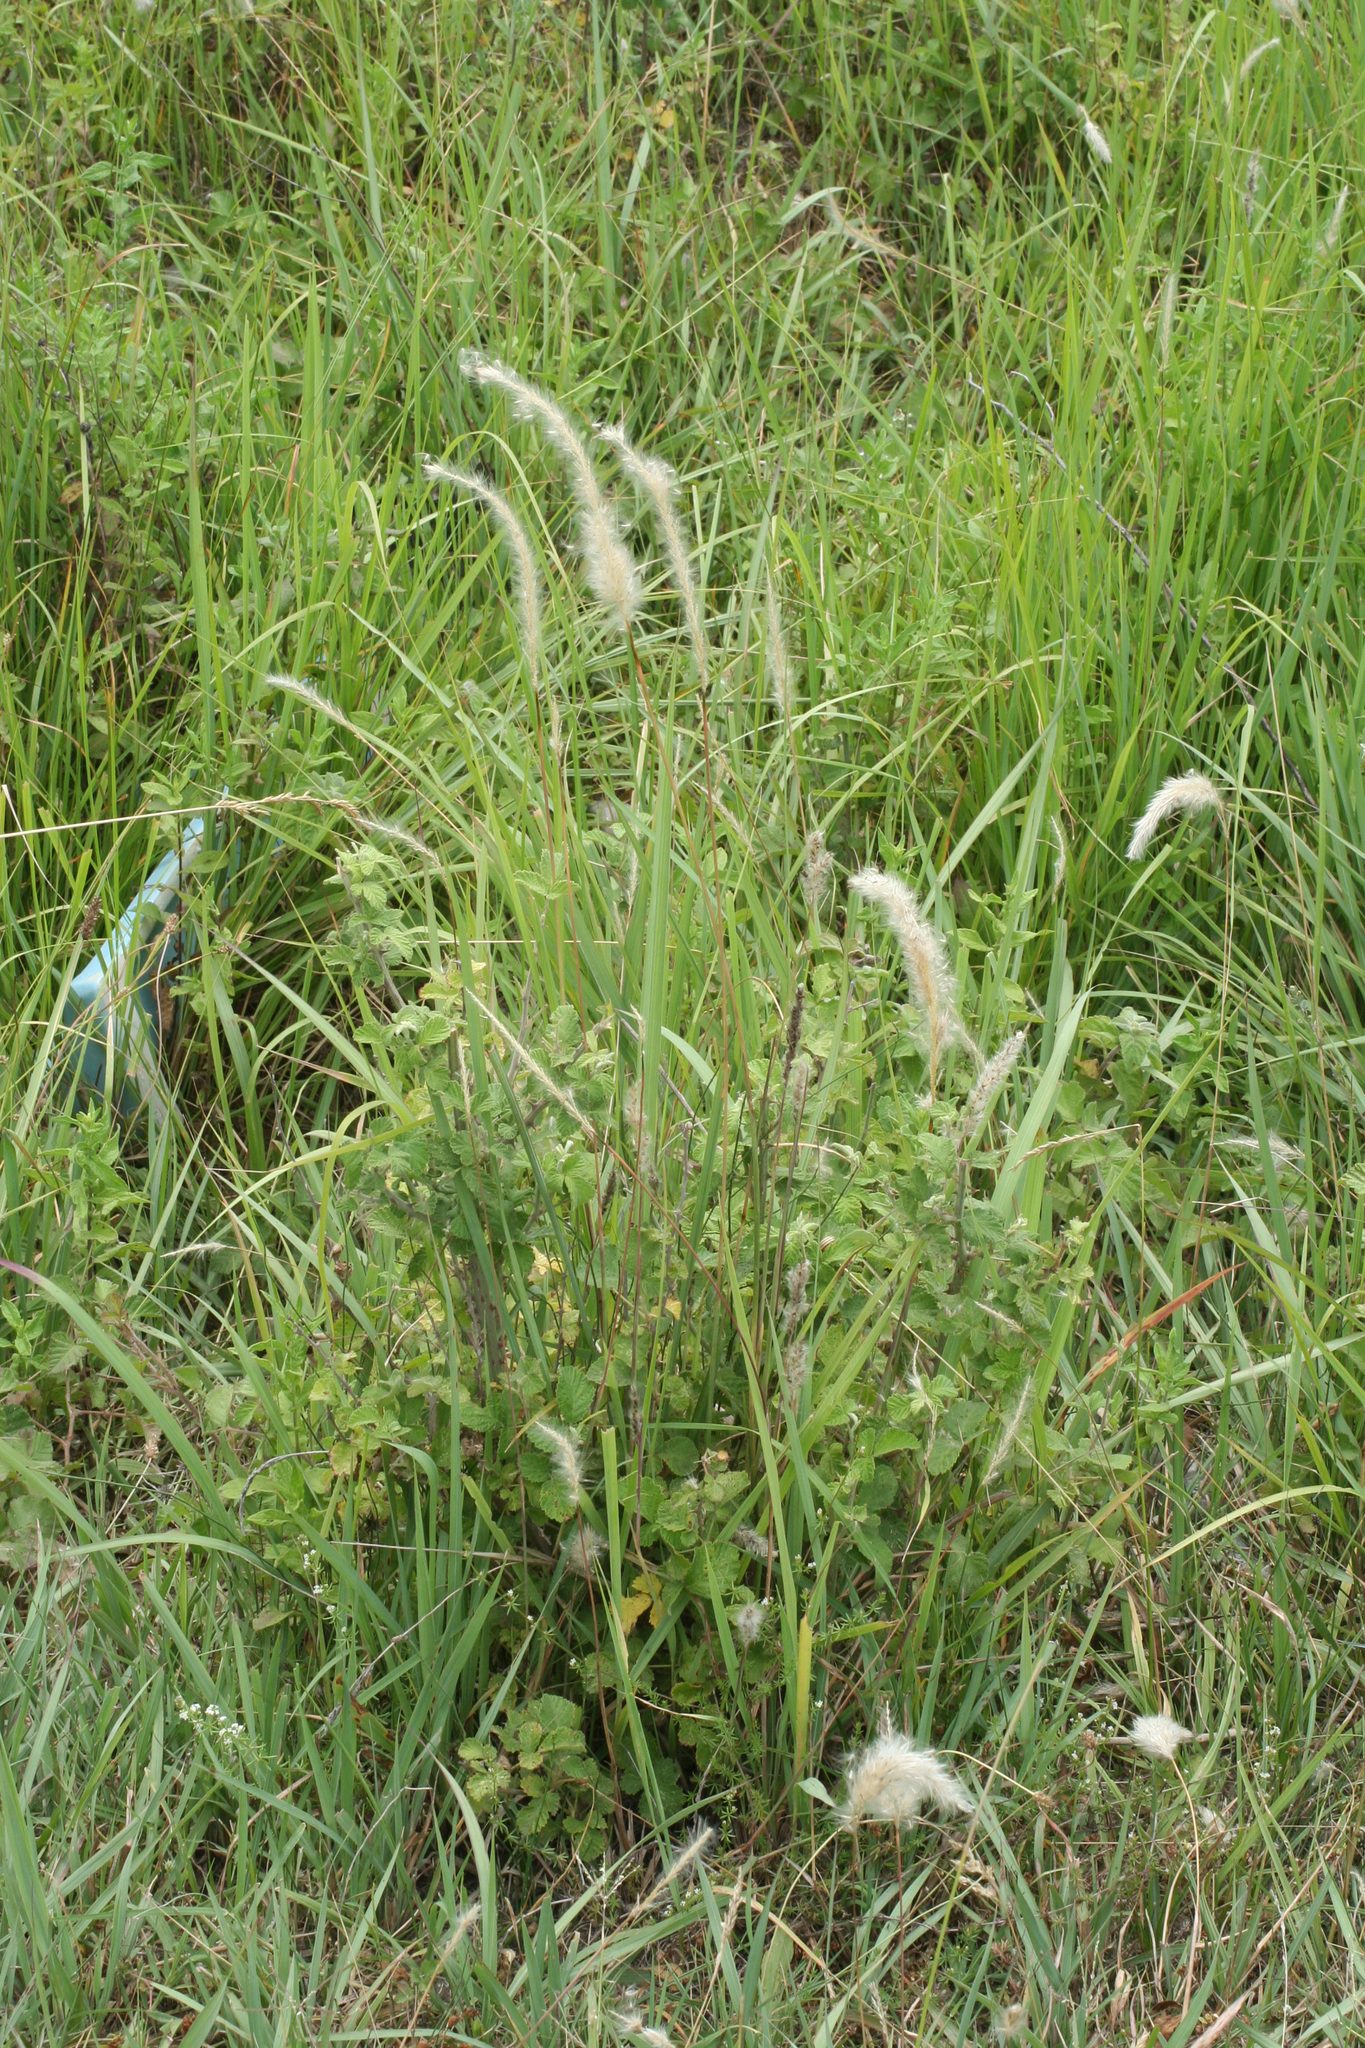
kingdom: Plantae
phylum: Tracheophyta
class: Liliopsida
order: Poales
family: Poaceae
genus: Imperata
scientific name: Imperata cylindrica
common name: Cogongrass
